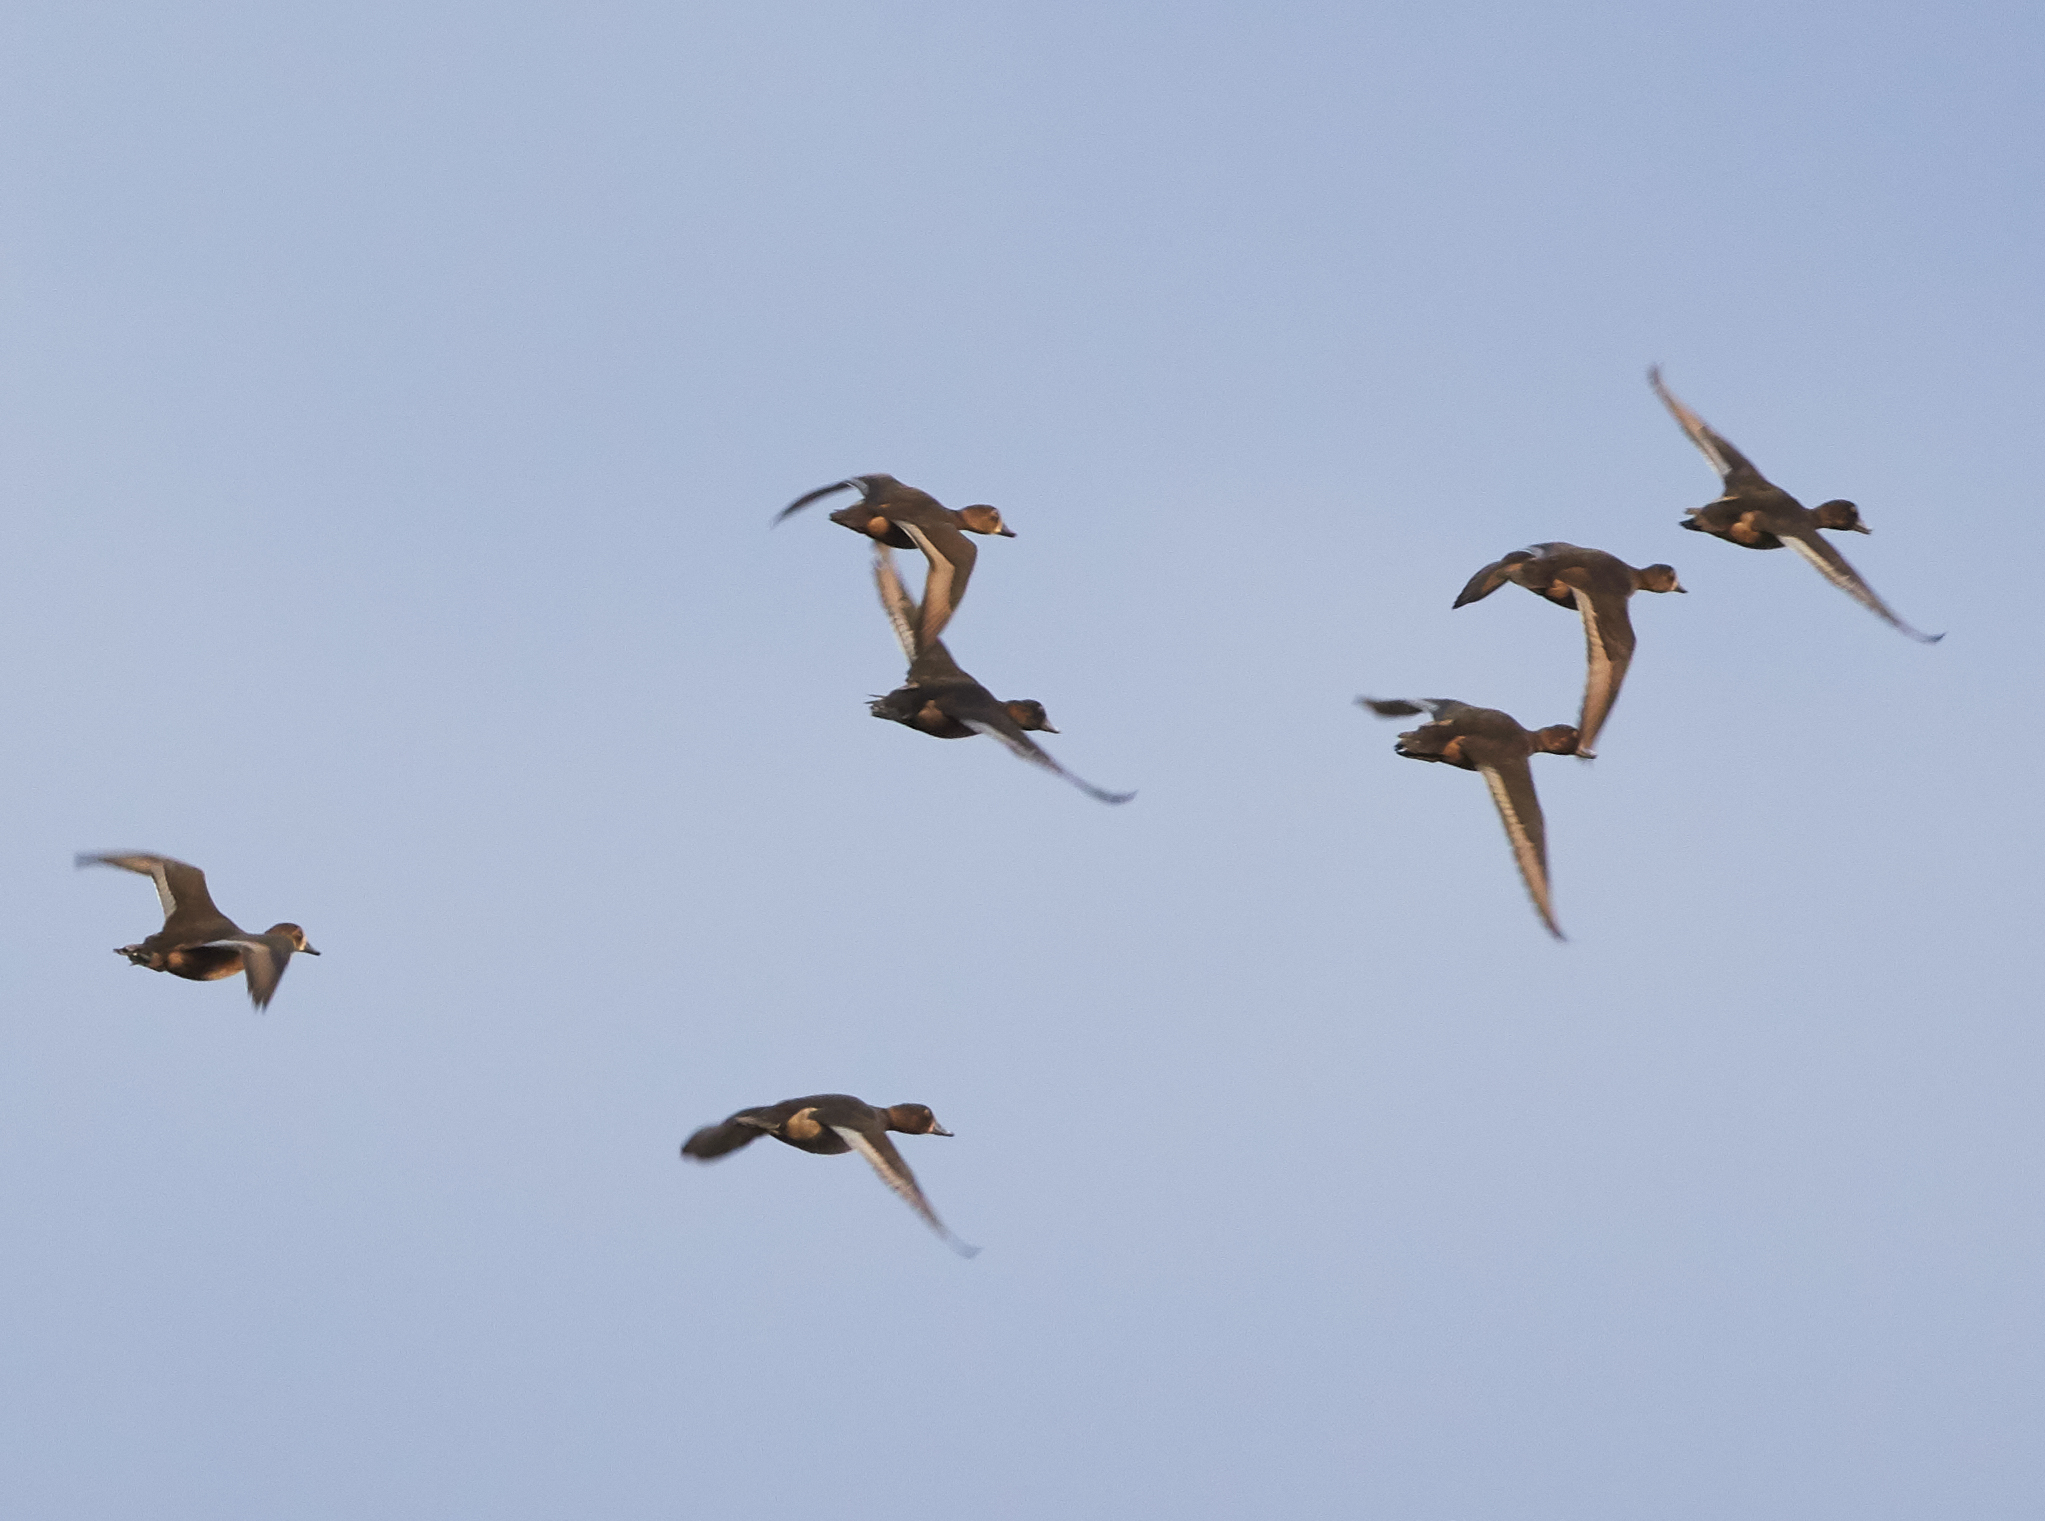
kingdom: Animalia
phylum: Chordata
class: Aves
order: Anseriformes
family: Anatidae
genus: Aythya
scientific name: Aythya marila
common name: Greater scaup
